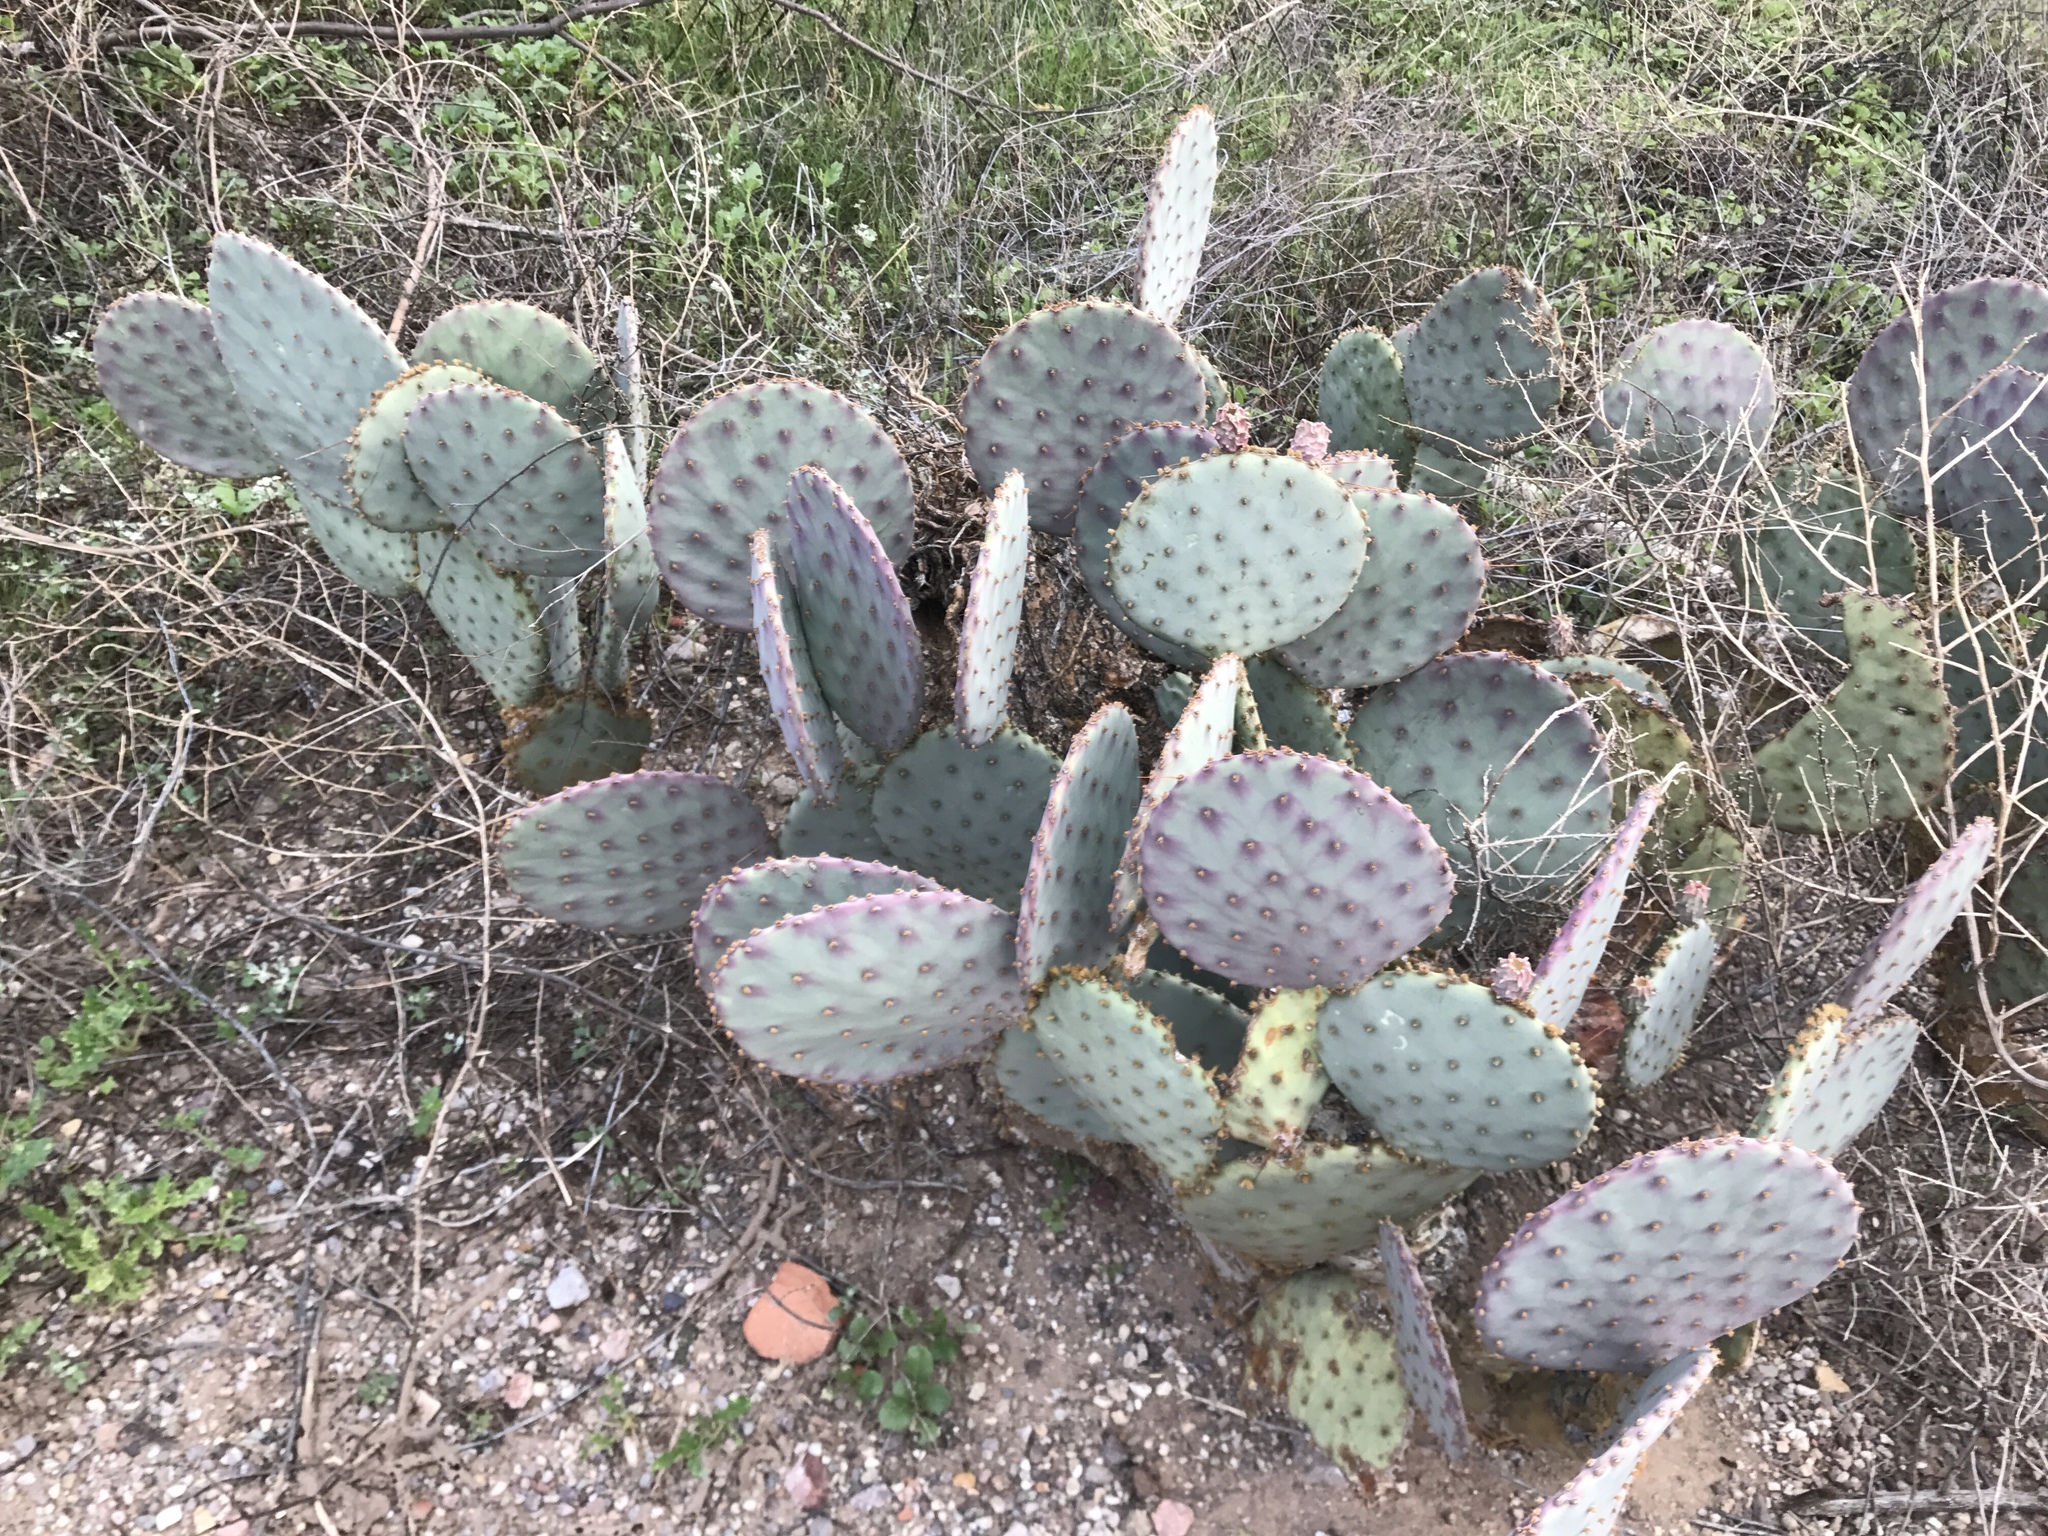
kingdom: Plantae
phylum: Tracheophyta
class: Magnoliopsida
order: Caryophyllales
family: Cactaceae
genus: Opuntia
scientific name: Opuntia gosseliniana
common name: Violet prickly-pear
